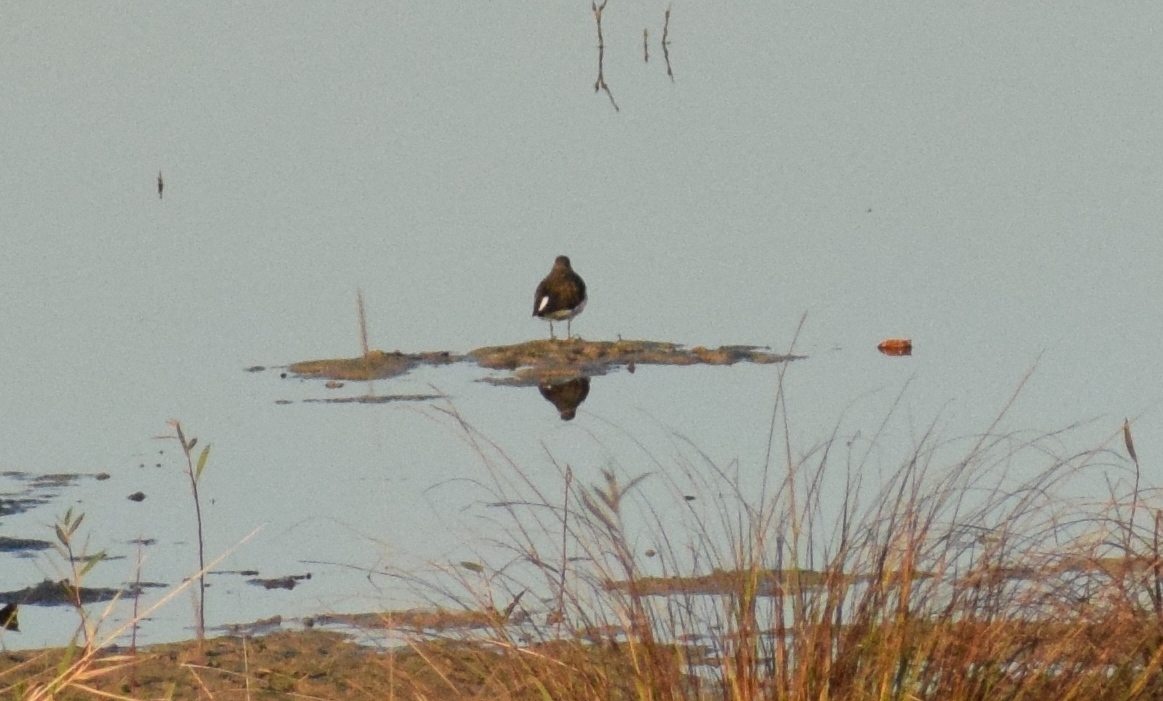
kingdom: Animalia
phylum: Chordata
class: Aves
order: Charadriiformes
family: Scolopacidae
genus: Tringa
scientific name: Tringa ochropus
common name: Green sandpiper
